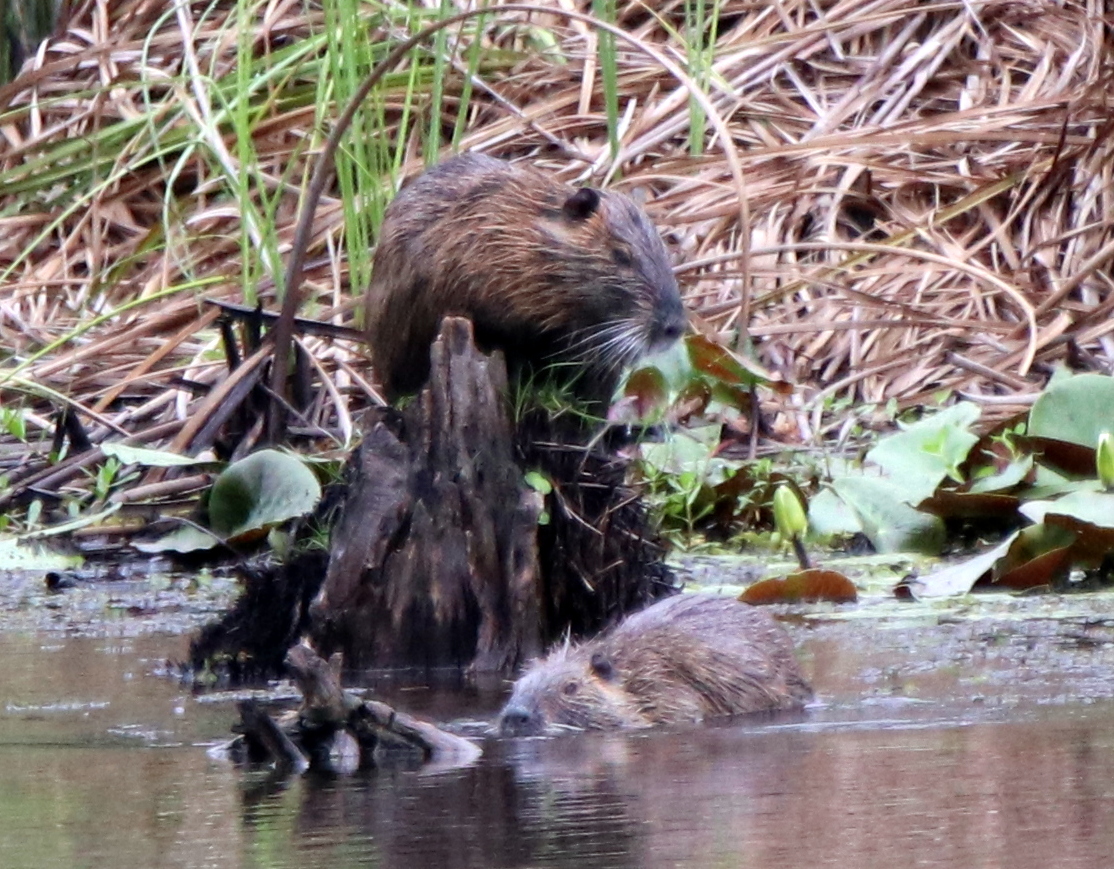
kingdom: Animalia
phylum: Chordata
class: Mammalia
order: Rodentia
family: Myocastoridae
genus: Myocastor
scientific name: Myocastor coypus
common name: Coypu
